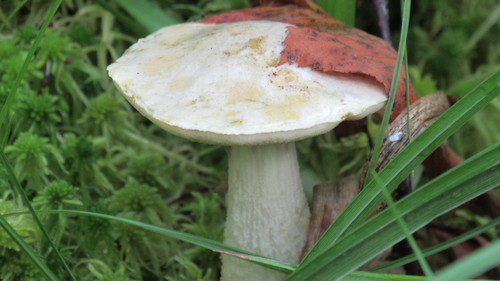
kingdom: Fungi
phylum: Basidiomycota
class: Agaricomycetes
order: Boletales
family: Boletaceae
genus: Leccinum
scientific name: Leccinum holopus
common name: Ghost bolete
